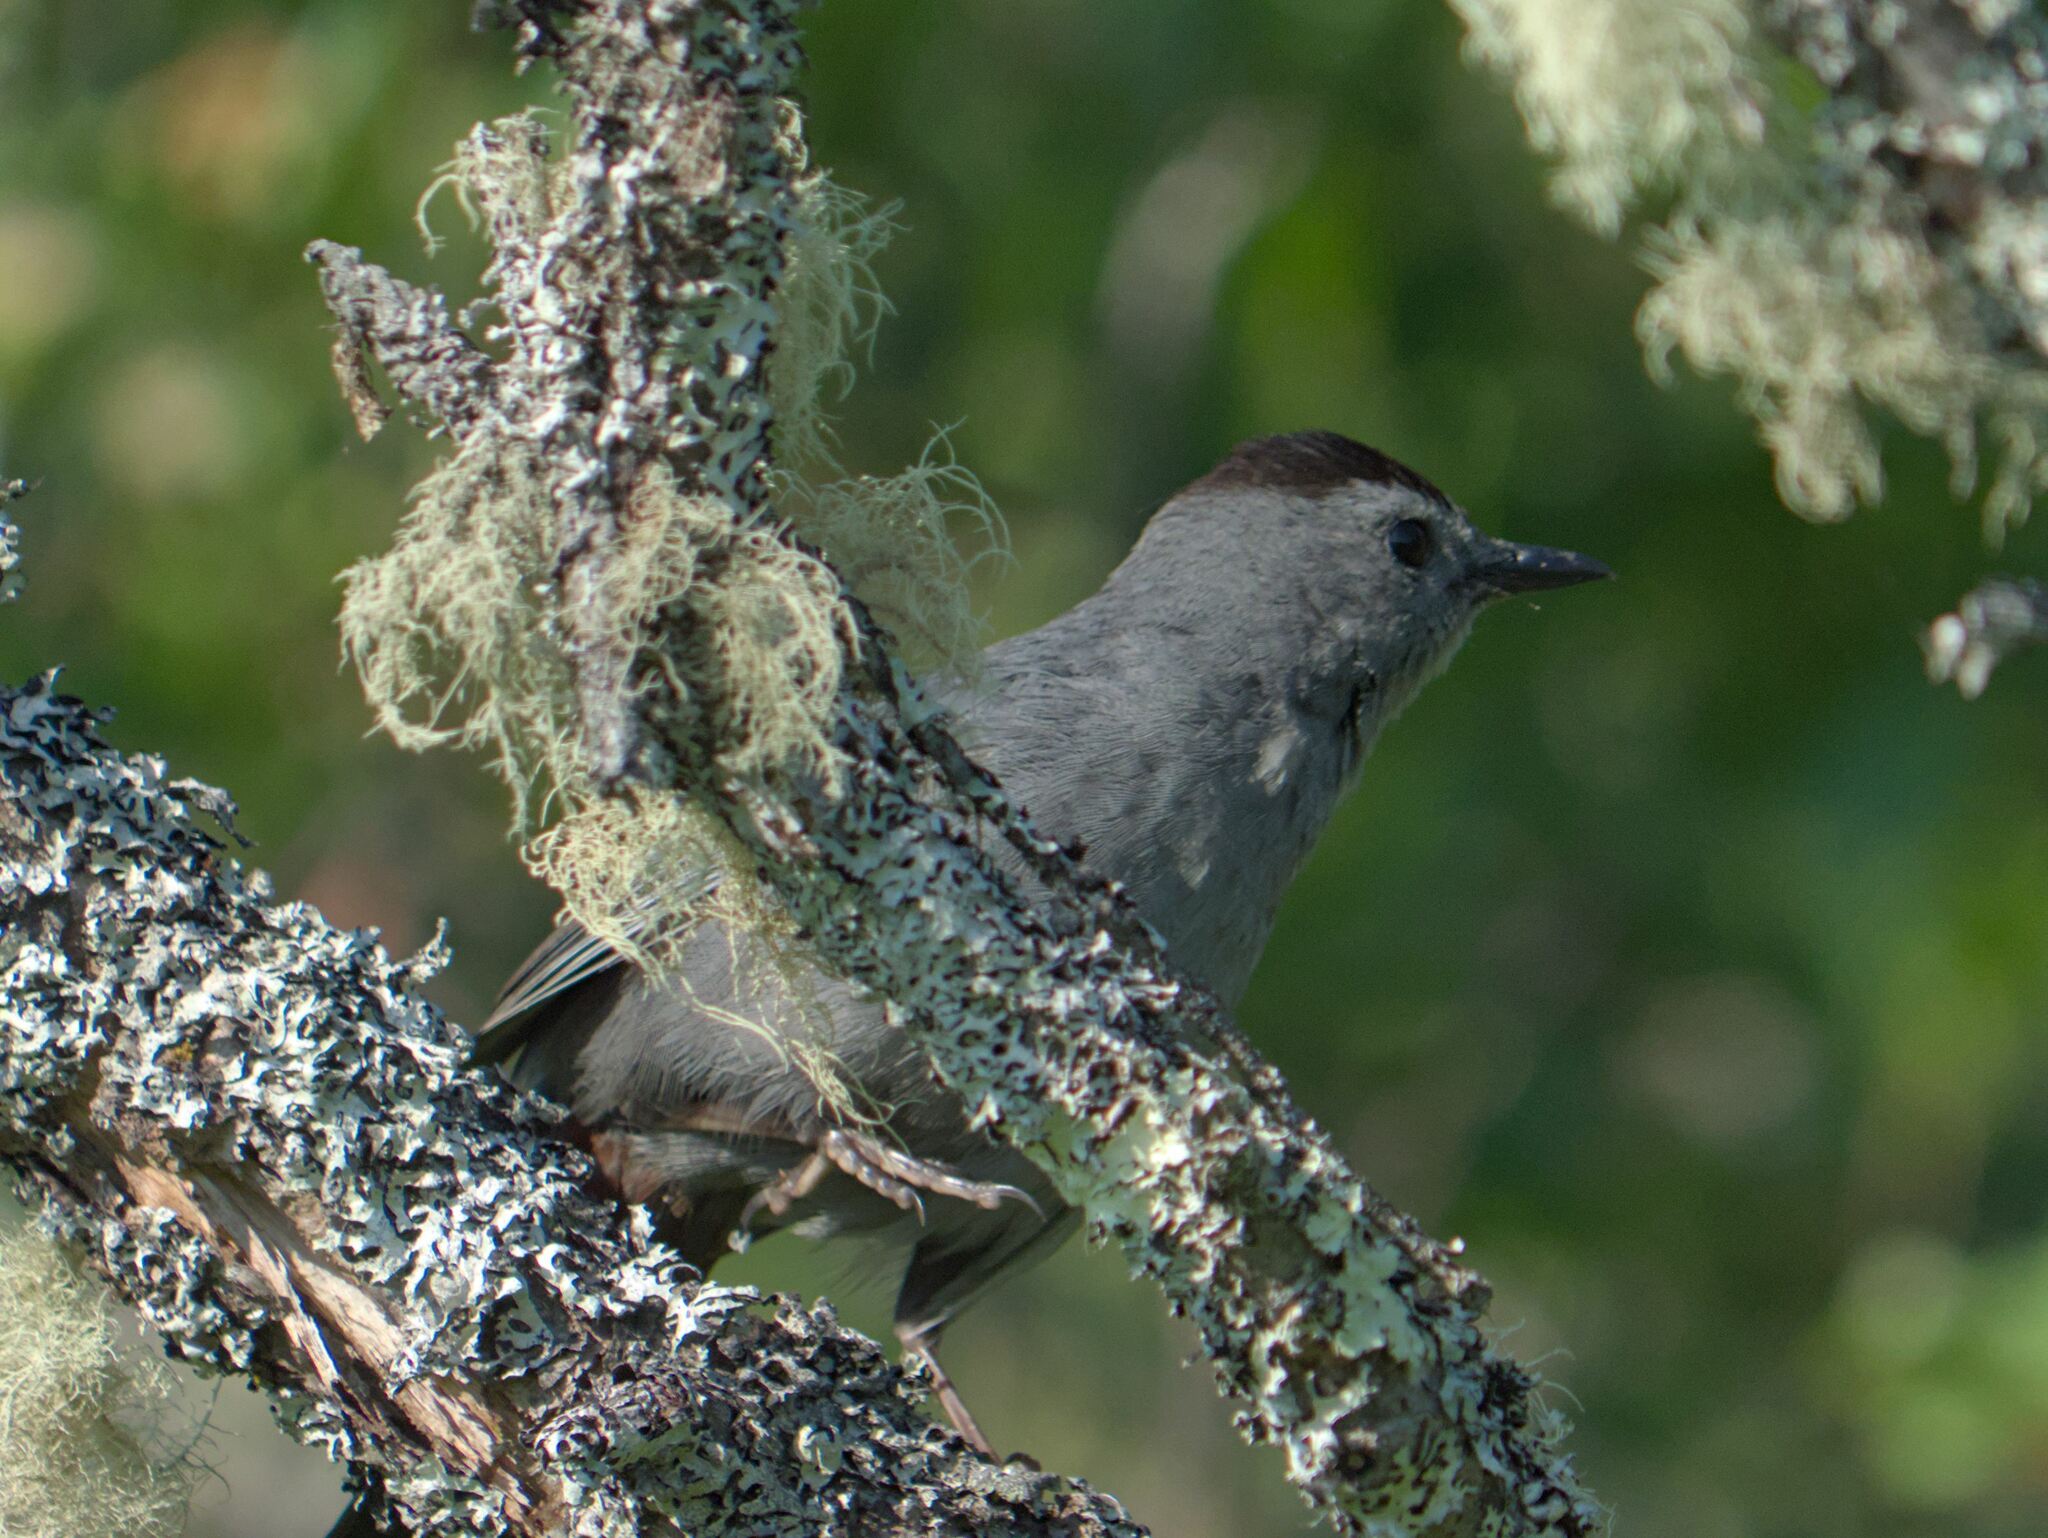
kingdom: Animalia
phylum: Chordata
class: Aves
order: Passeriformes
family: Mimidae
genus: Dumetella
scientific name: Dumetella carolinensis
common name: Gray catbird
